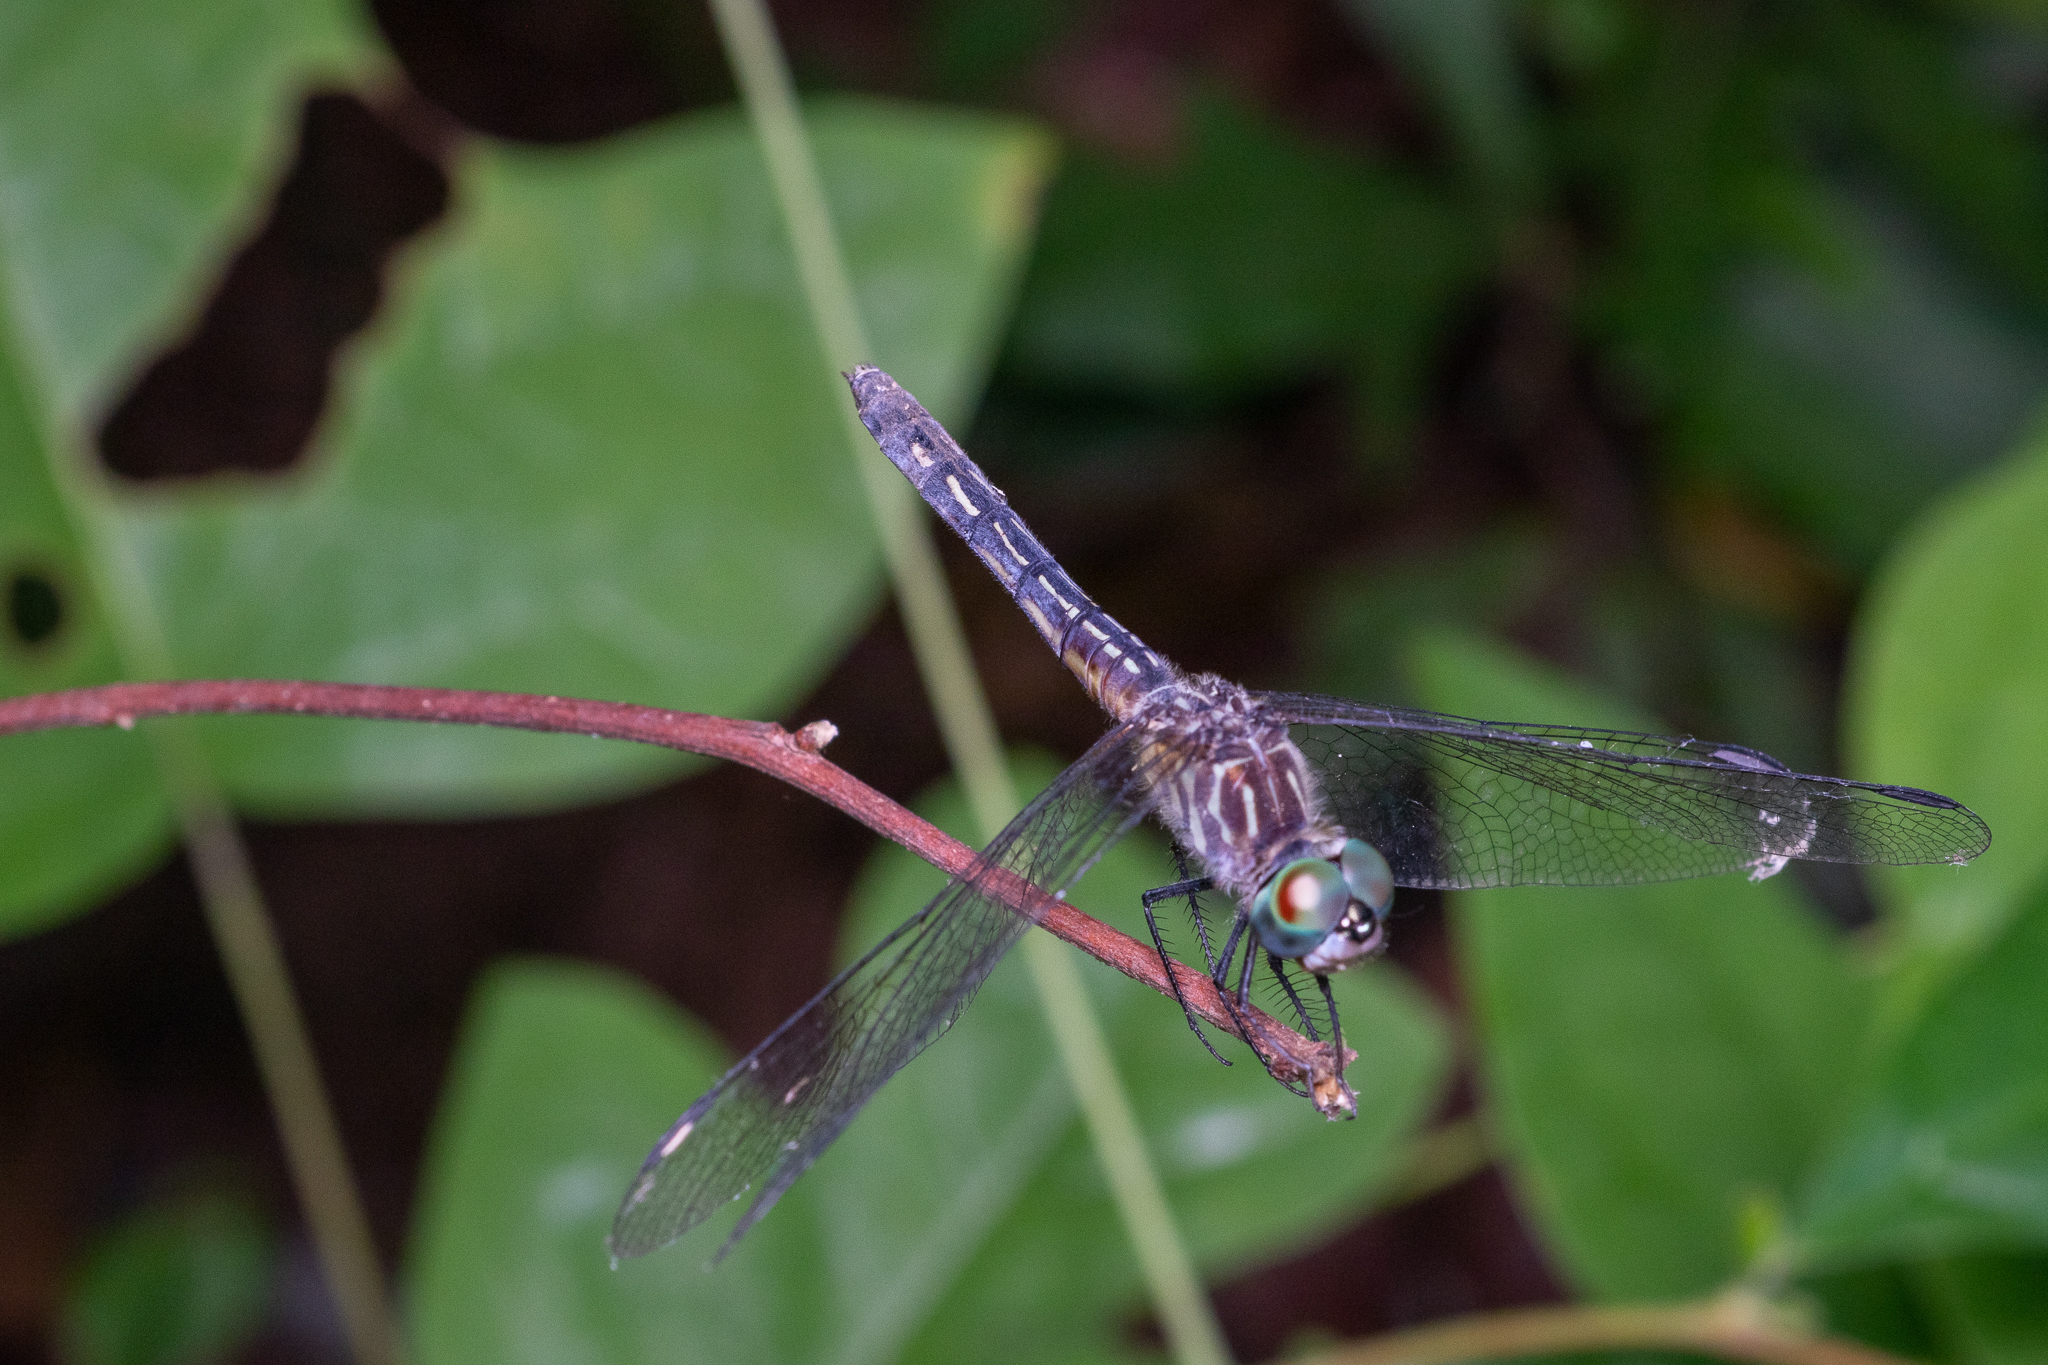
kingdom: Animalia
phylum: Arthropoda
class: Insecta
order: Odonata
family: Libellulidae
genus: Pachydiplax
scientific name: Pachydiplax longipennis
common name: Blue dasher
